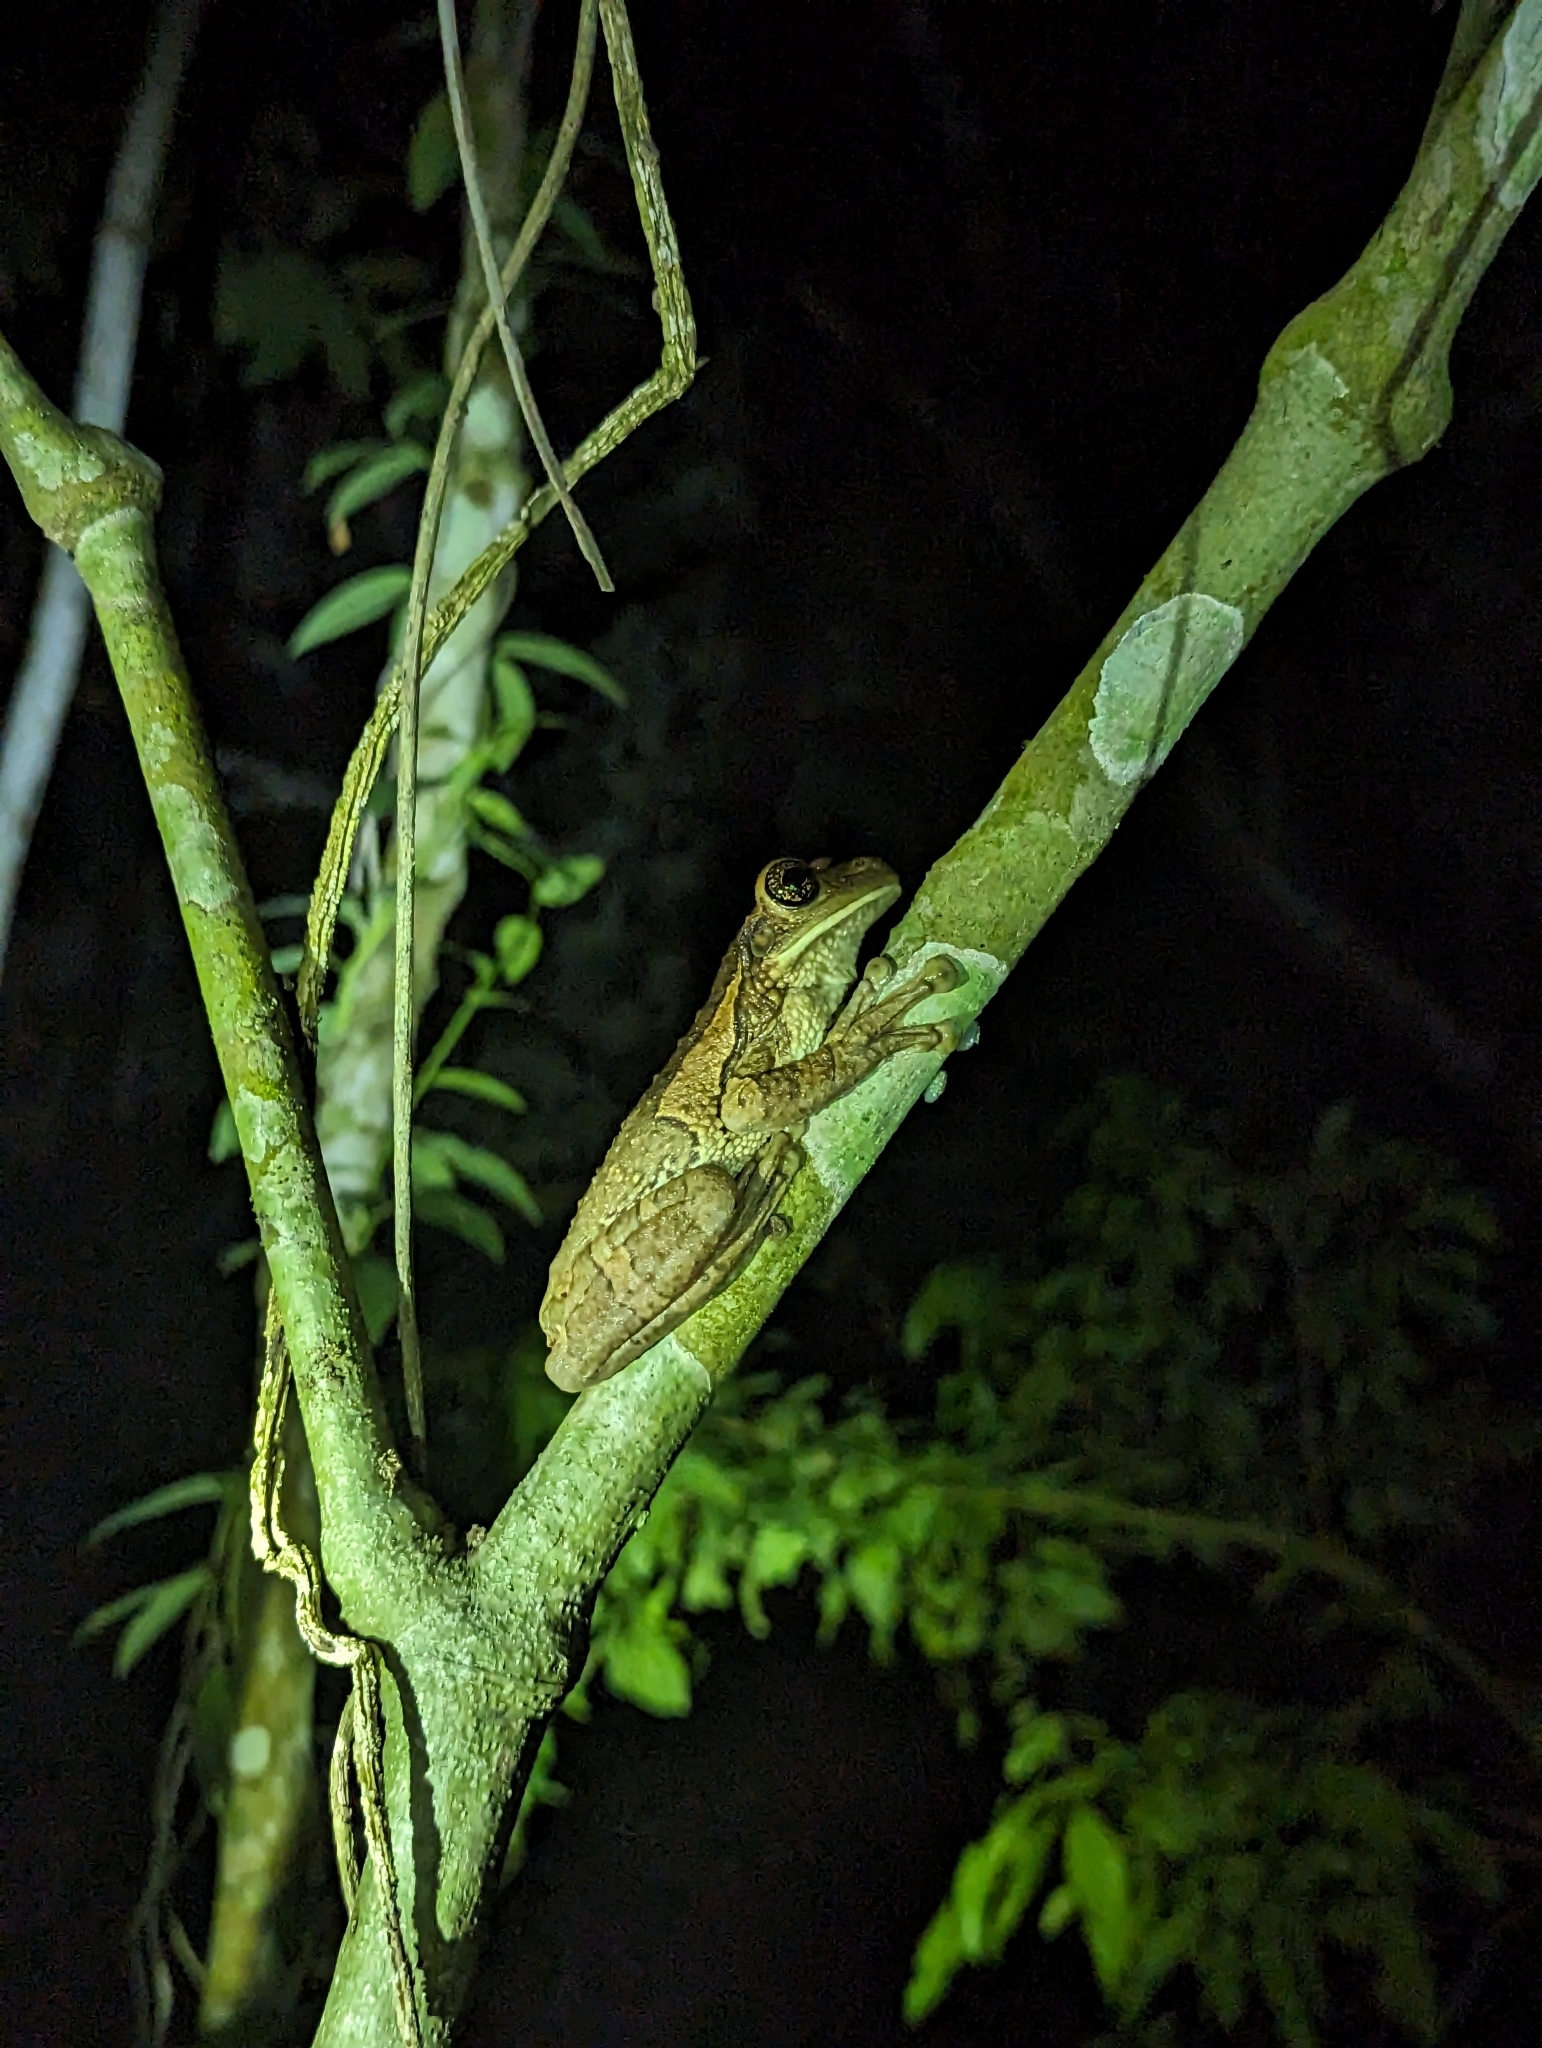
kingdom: Animalia
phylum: Chordata
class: Amphibia
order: Anura
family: Hylidae
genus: Trachycephalus
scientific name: Trachycephalus vermiculatus
